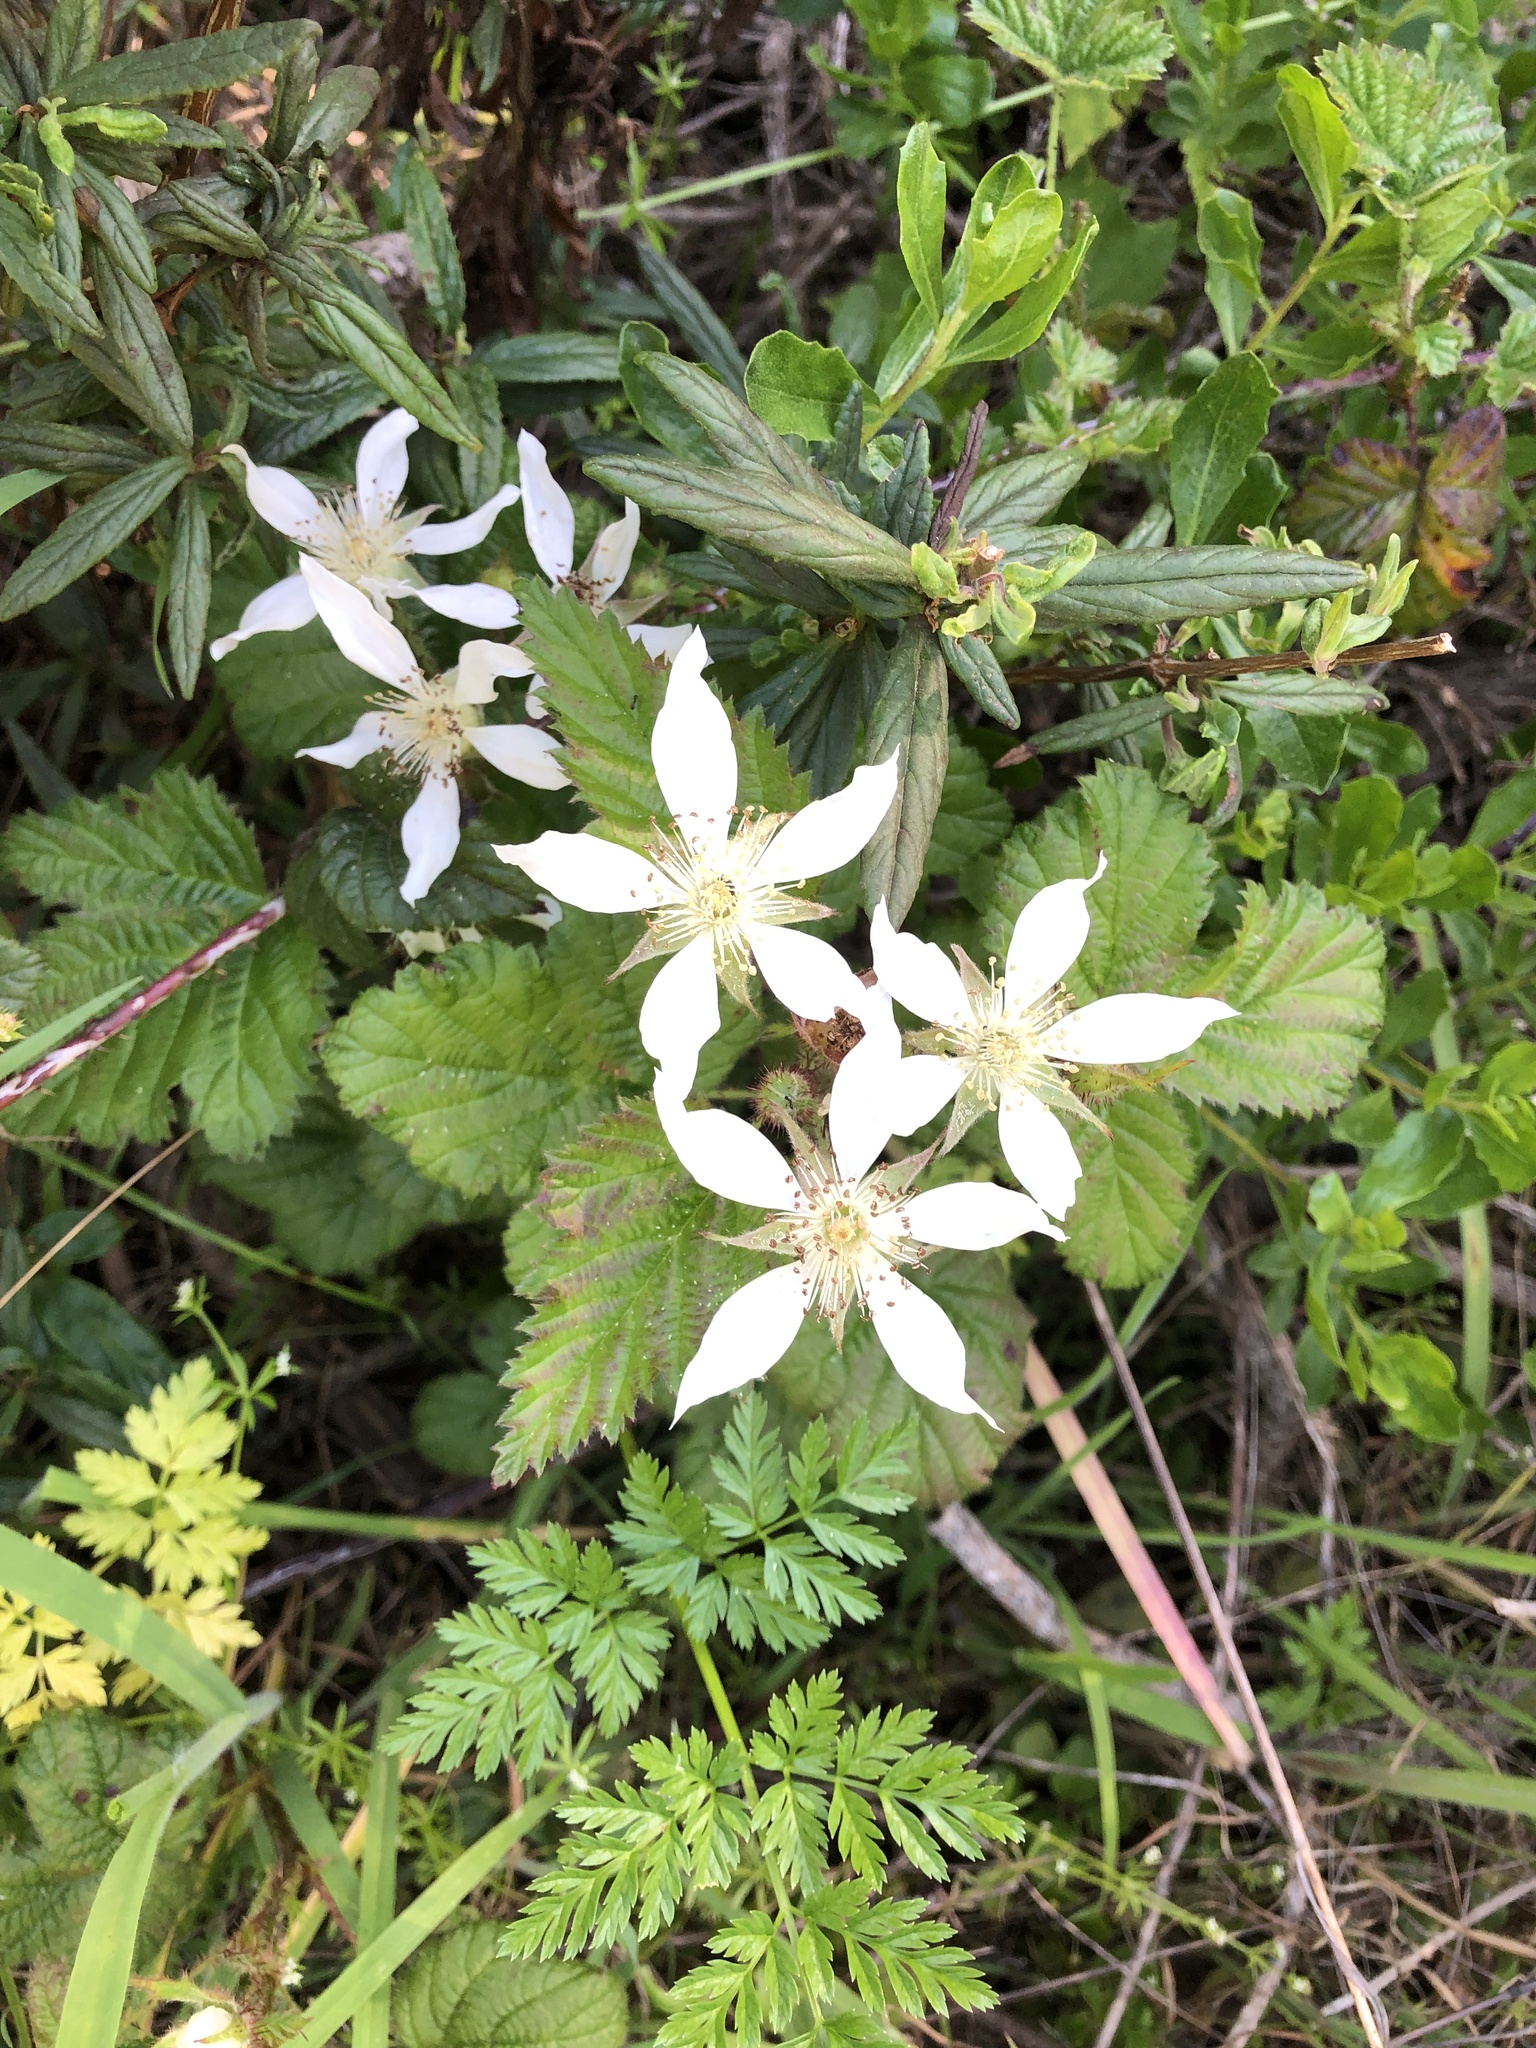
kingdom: Plantae
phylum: Tracheophyta
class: Magnoliopsida
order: Rosales
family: Rosaceae
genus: Rubus
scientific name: Rubus ursinus
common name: Pacific blackberry
